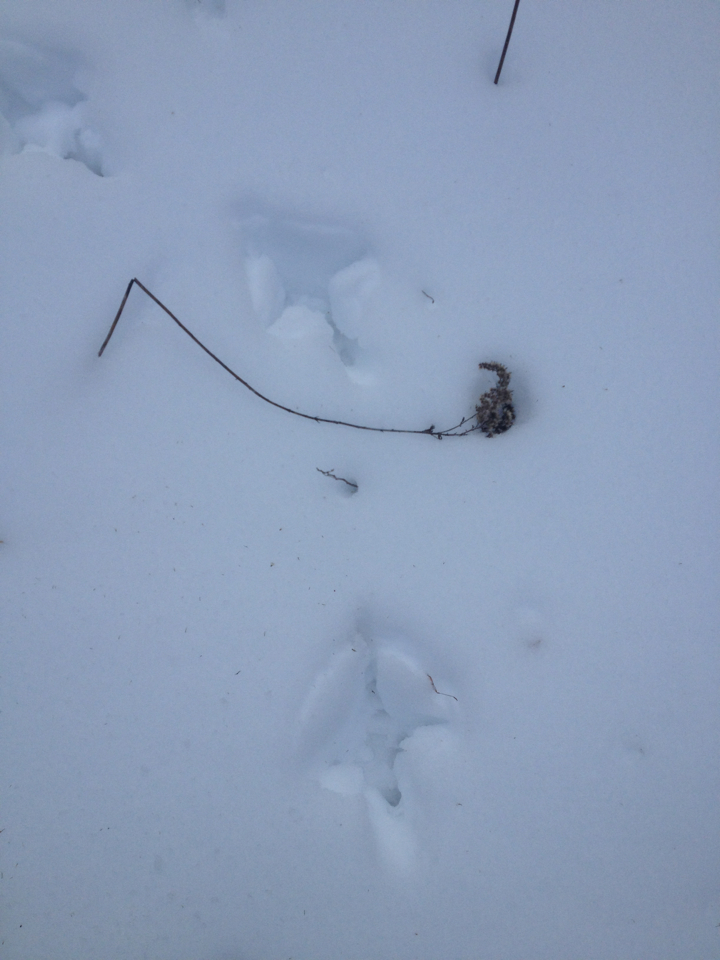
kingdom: Animalia
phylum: Chordata
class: Aves
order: Galliformes
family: Phasianidae
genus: Meleagris
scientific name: Meleagris gallopavo
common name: Wild turkey
